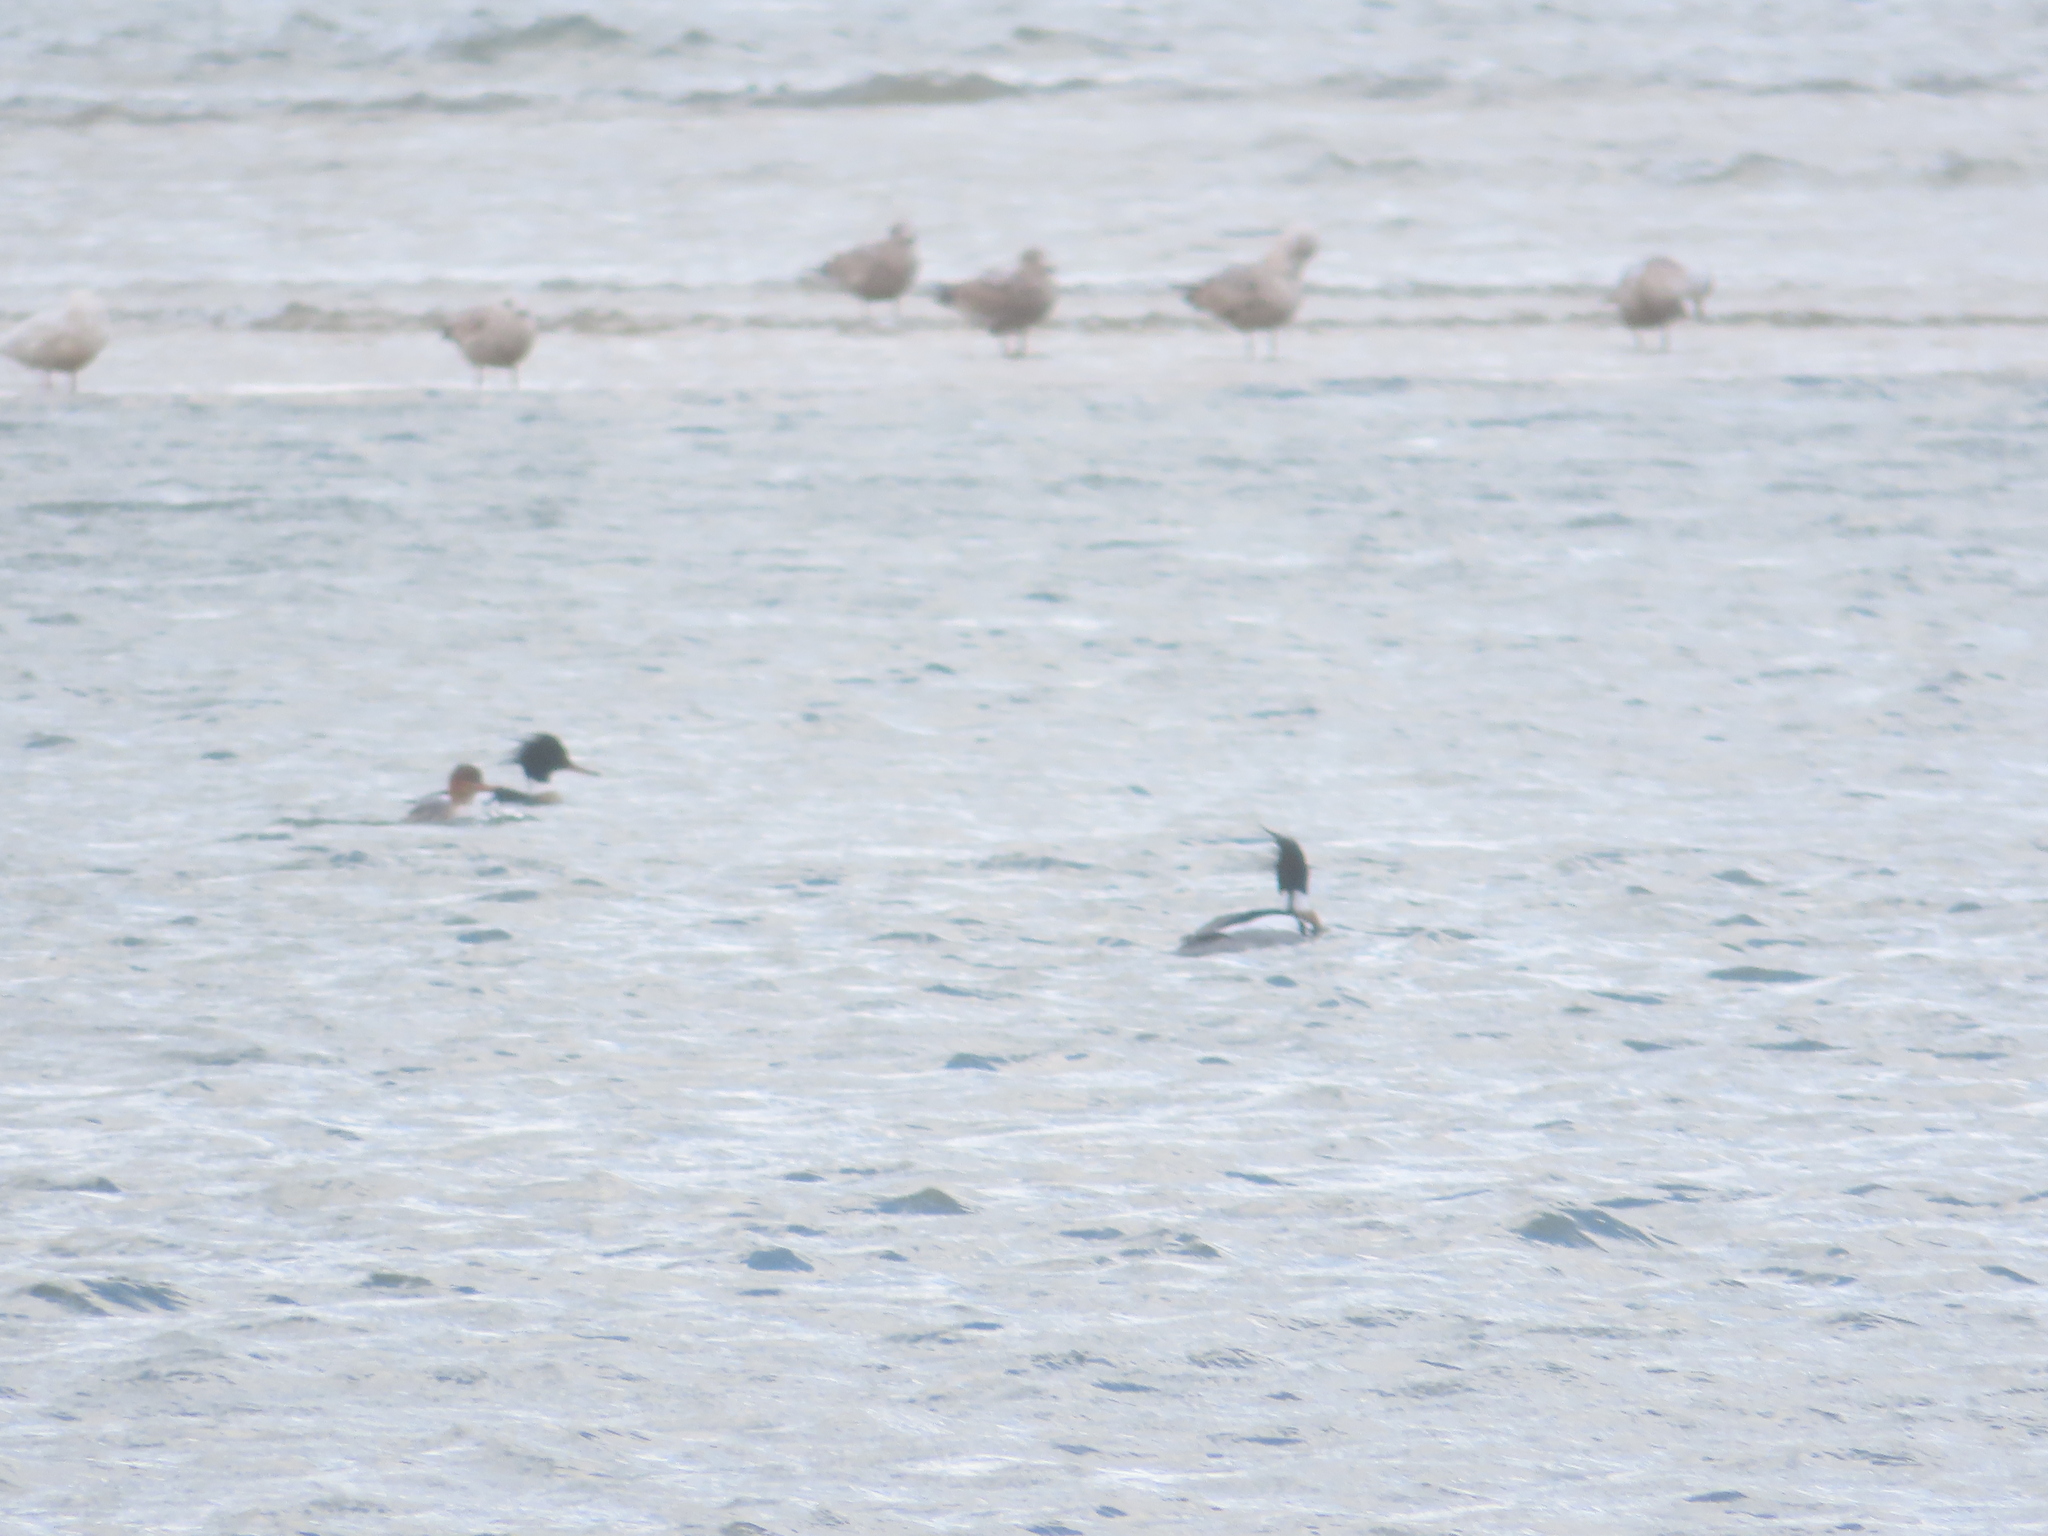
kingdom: Animalia
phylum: Chordata
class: Aves
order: Anseriformes
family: Anatidae
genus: Mergus
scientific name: Mergus serrator
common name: Red-breasted merganser
